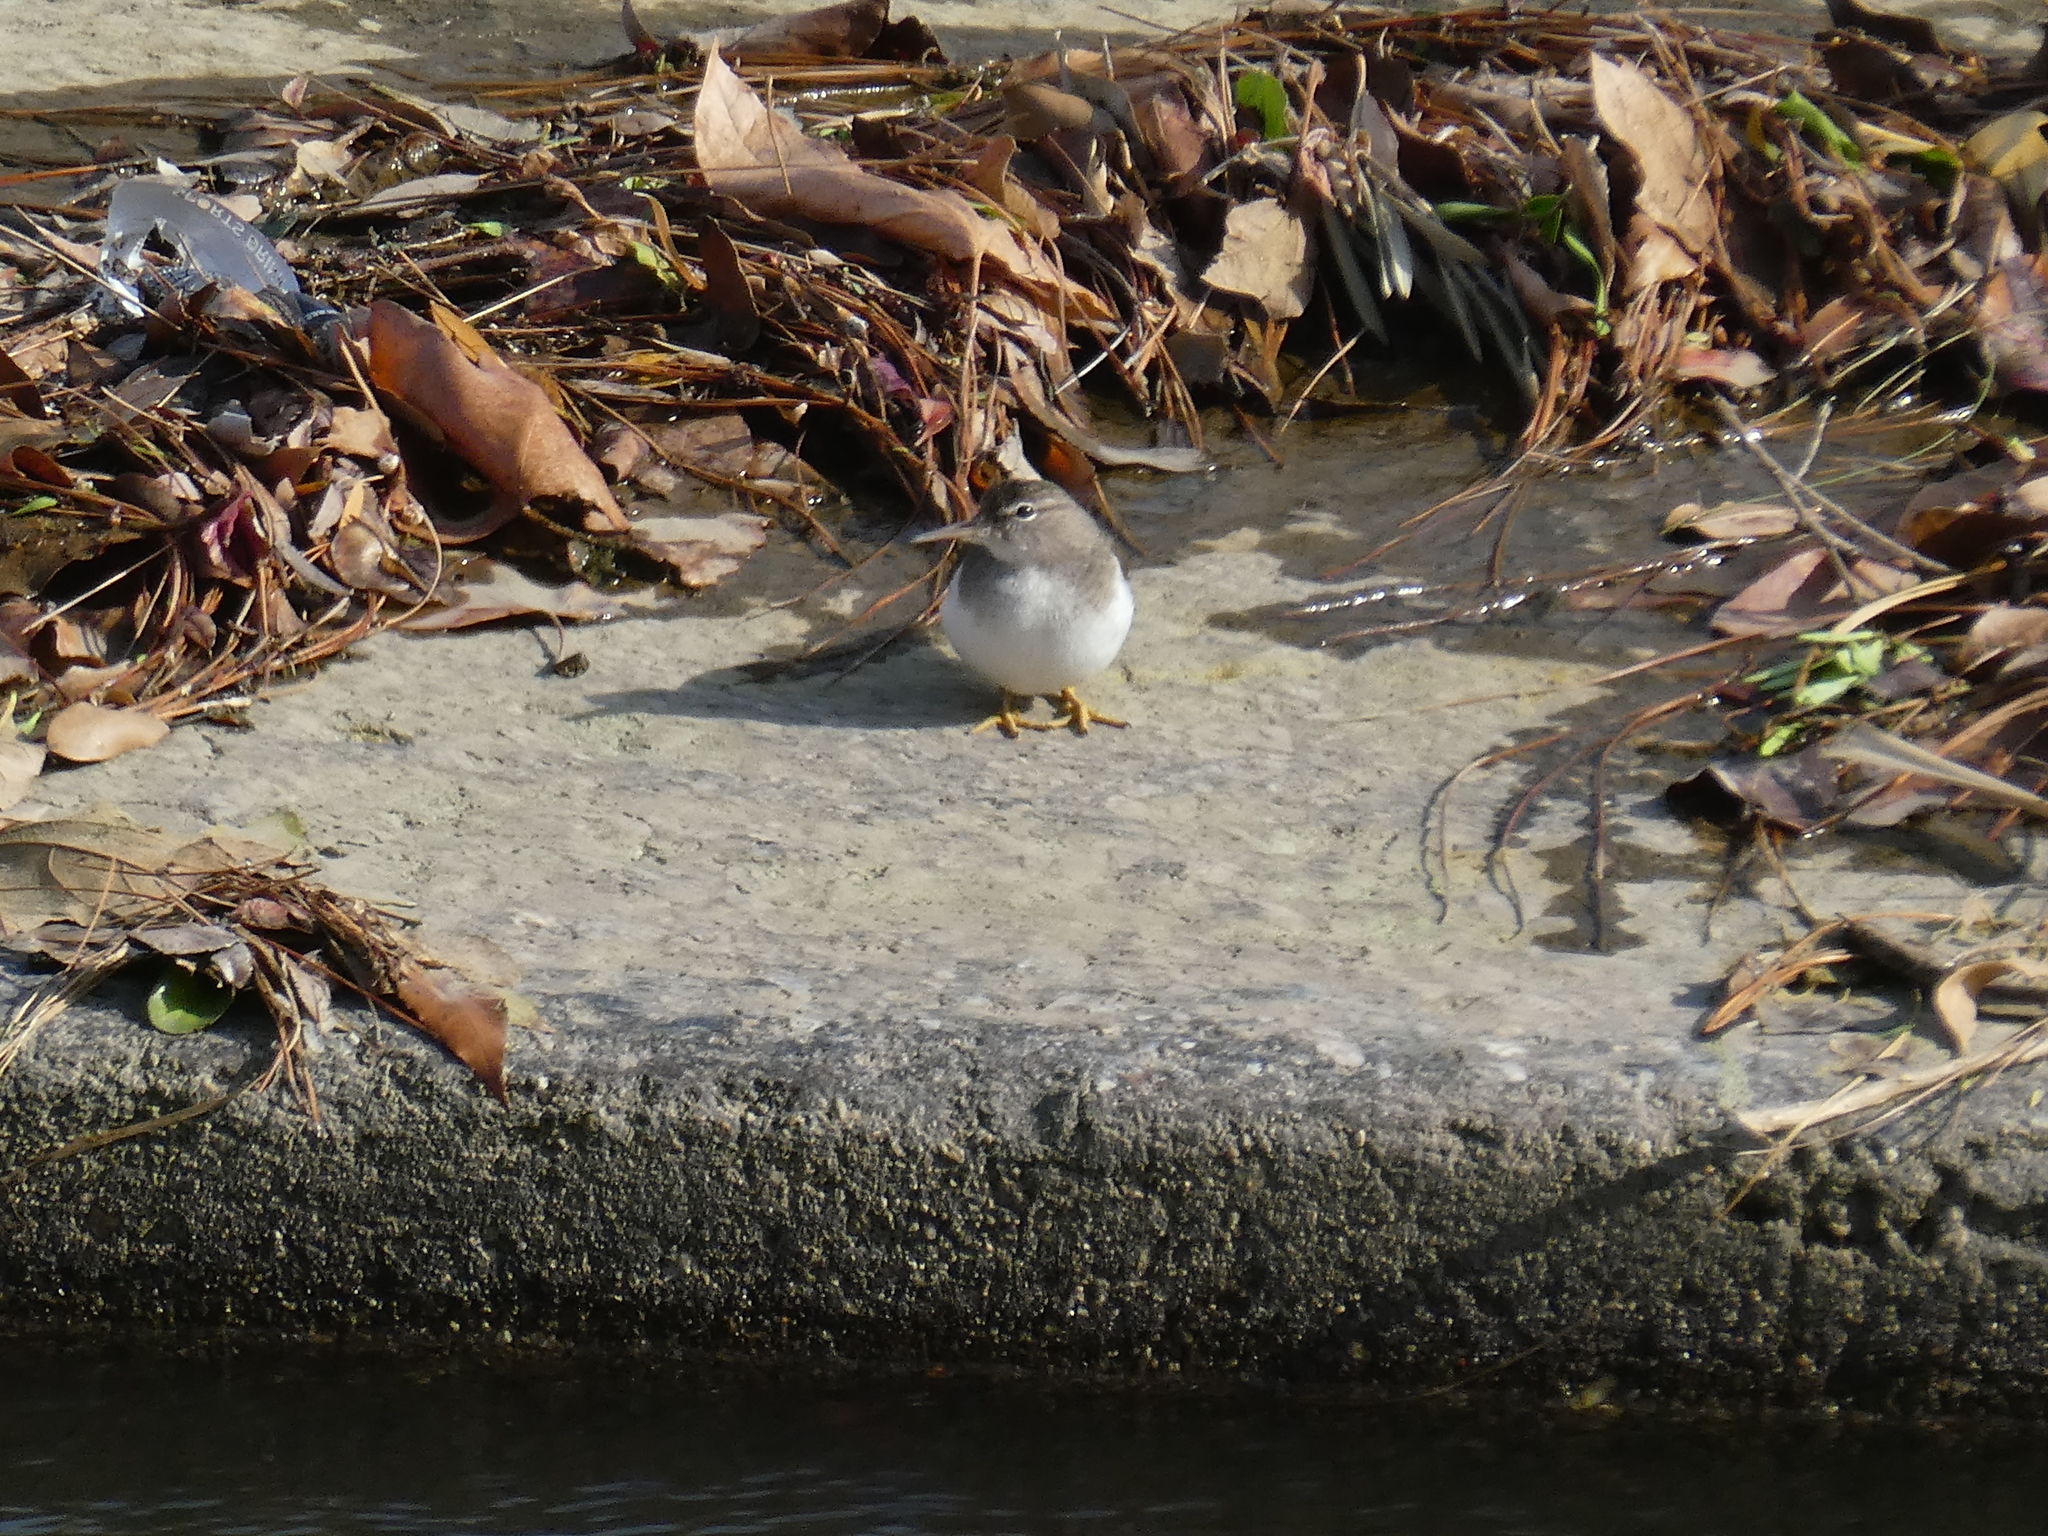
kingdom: Animalia
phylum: Chordata
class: Aves
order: Charadriiformes
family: Scolopacidae
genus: Actitis
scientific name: Actitis macularius
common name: Spotted sandpiper
